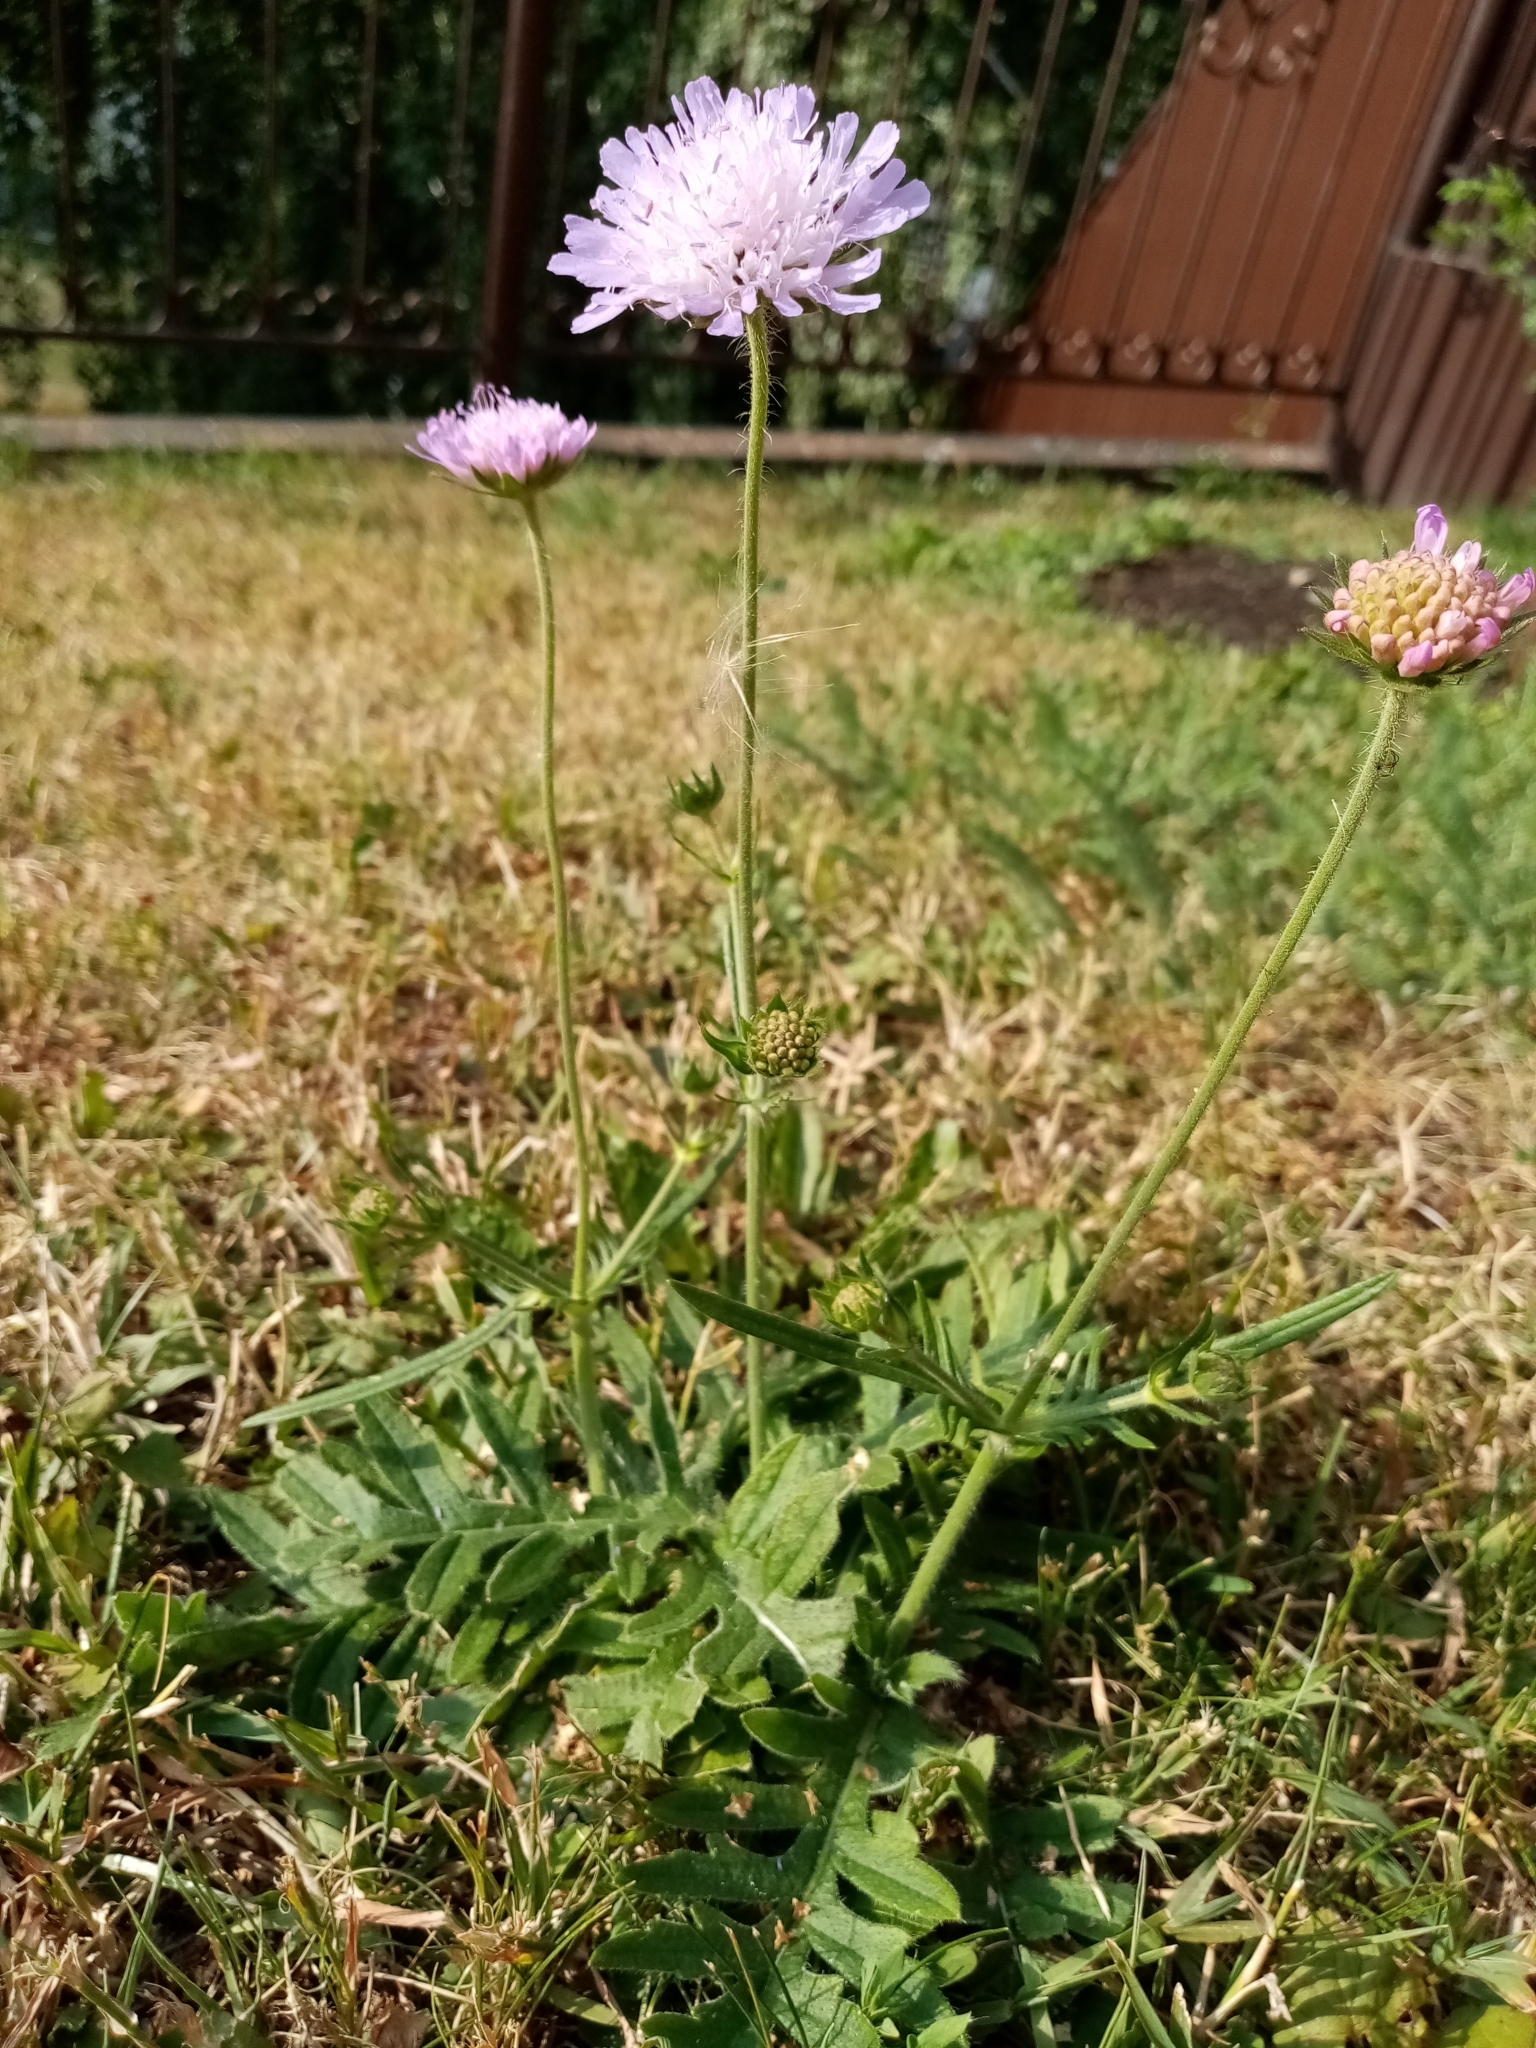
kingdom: Plantae
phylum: Tracheophyta
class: Magnoliopsida
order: Dipsacales
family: Caprifoliaceae
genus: Knautia
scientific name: Knautia arvensis
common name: Field scabiosa
